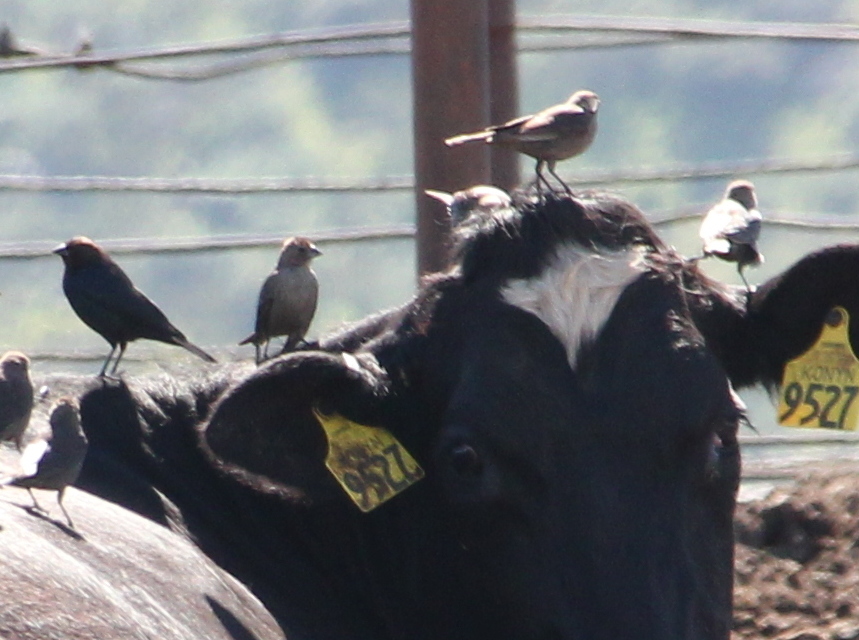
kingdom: Animalia
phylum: Chordata
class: Aves
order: Passeriformes
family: Icteridae
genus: Molothrus
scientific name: Molothrus ater
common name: Brown-headed cowbird
